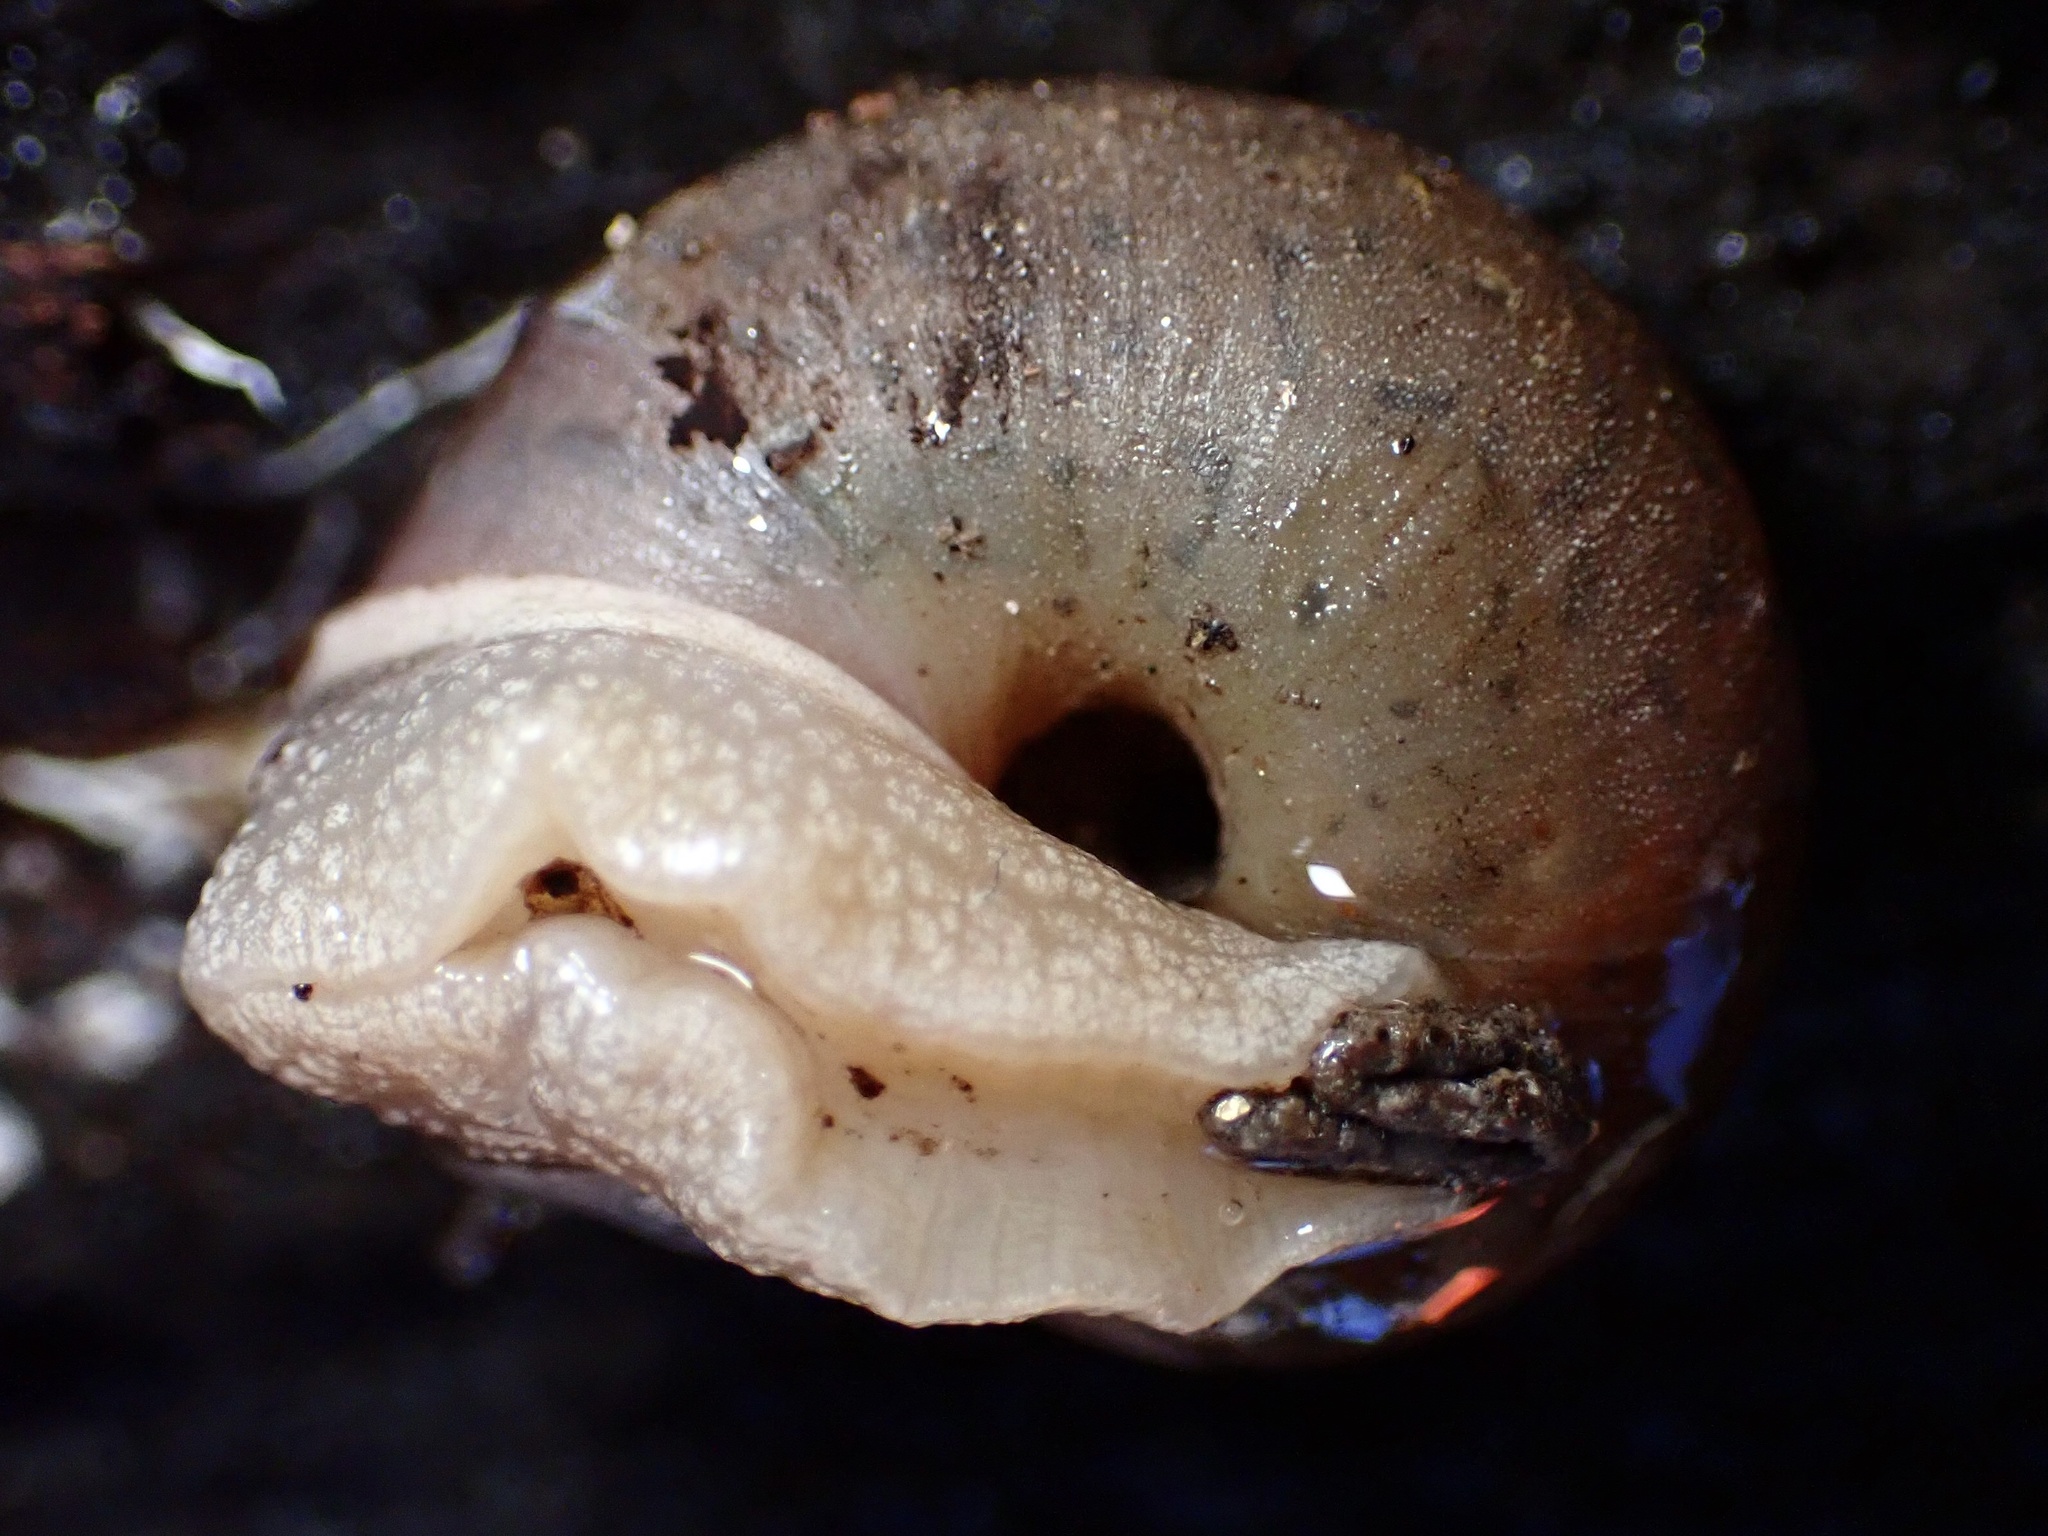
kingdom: Animalia
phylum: Mollusca
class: Gastropoda
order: Stylommatophora
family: Xanthonychidae
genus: Helminthoglypta
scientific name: Helminthoglypta montezuma
